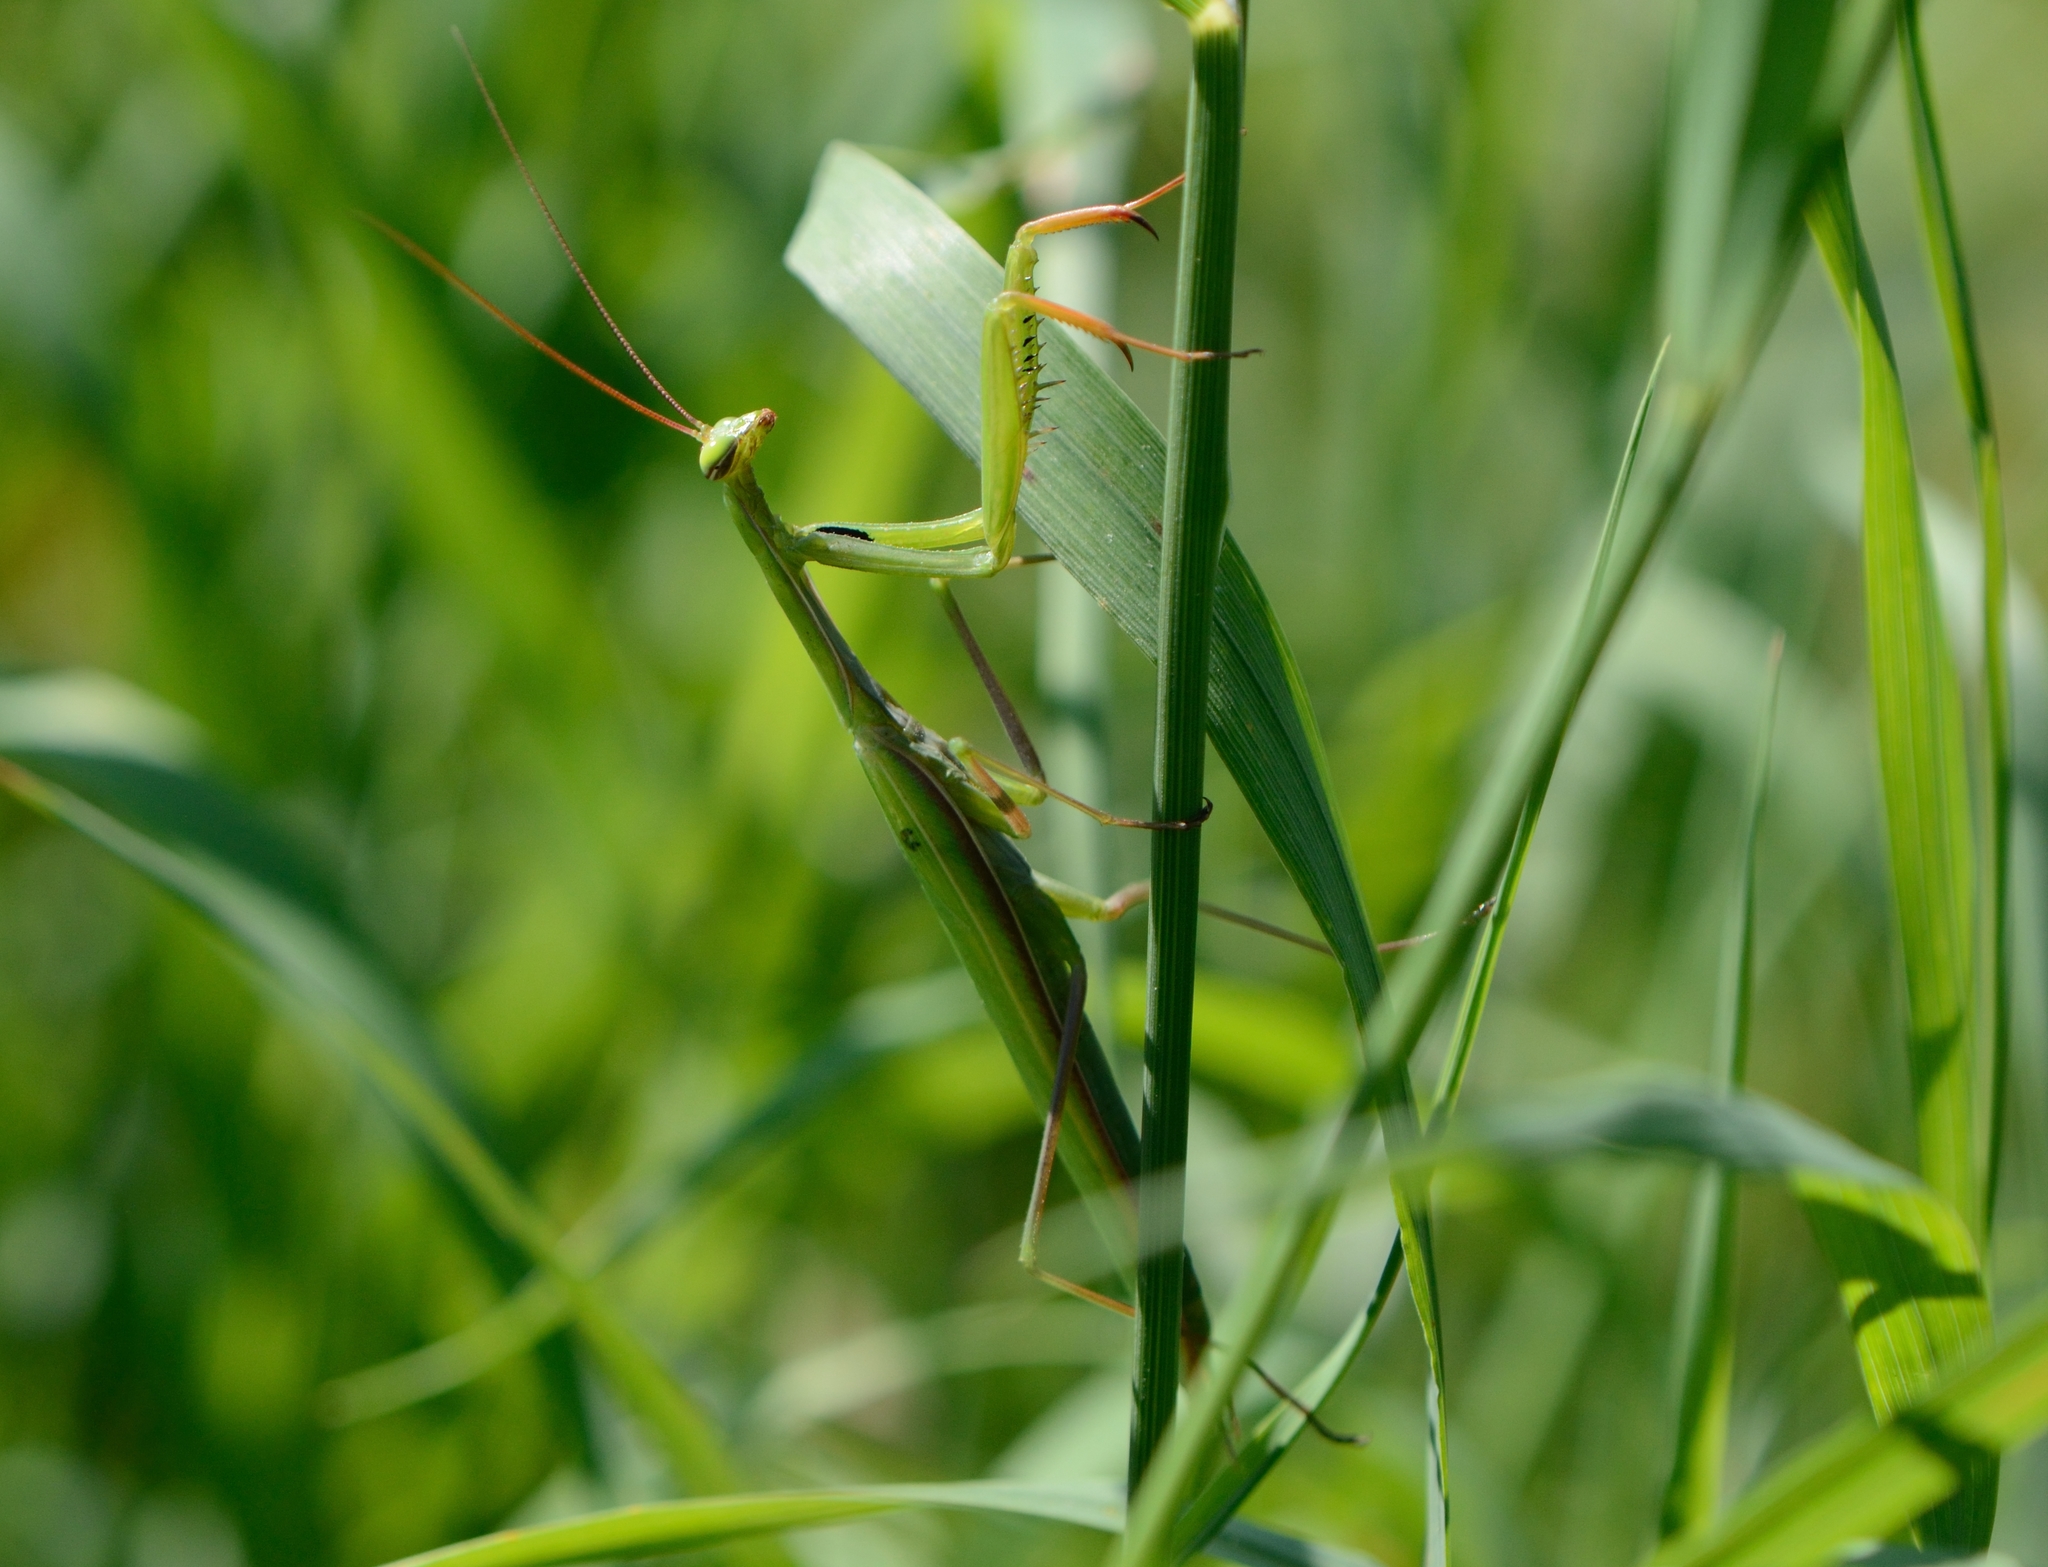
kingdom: Animalia
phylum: Arthropoda
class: Insecta
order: Mantodea
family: Mantidae
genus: Mantis
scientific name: Mantis religiosa
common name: Praying mantis
